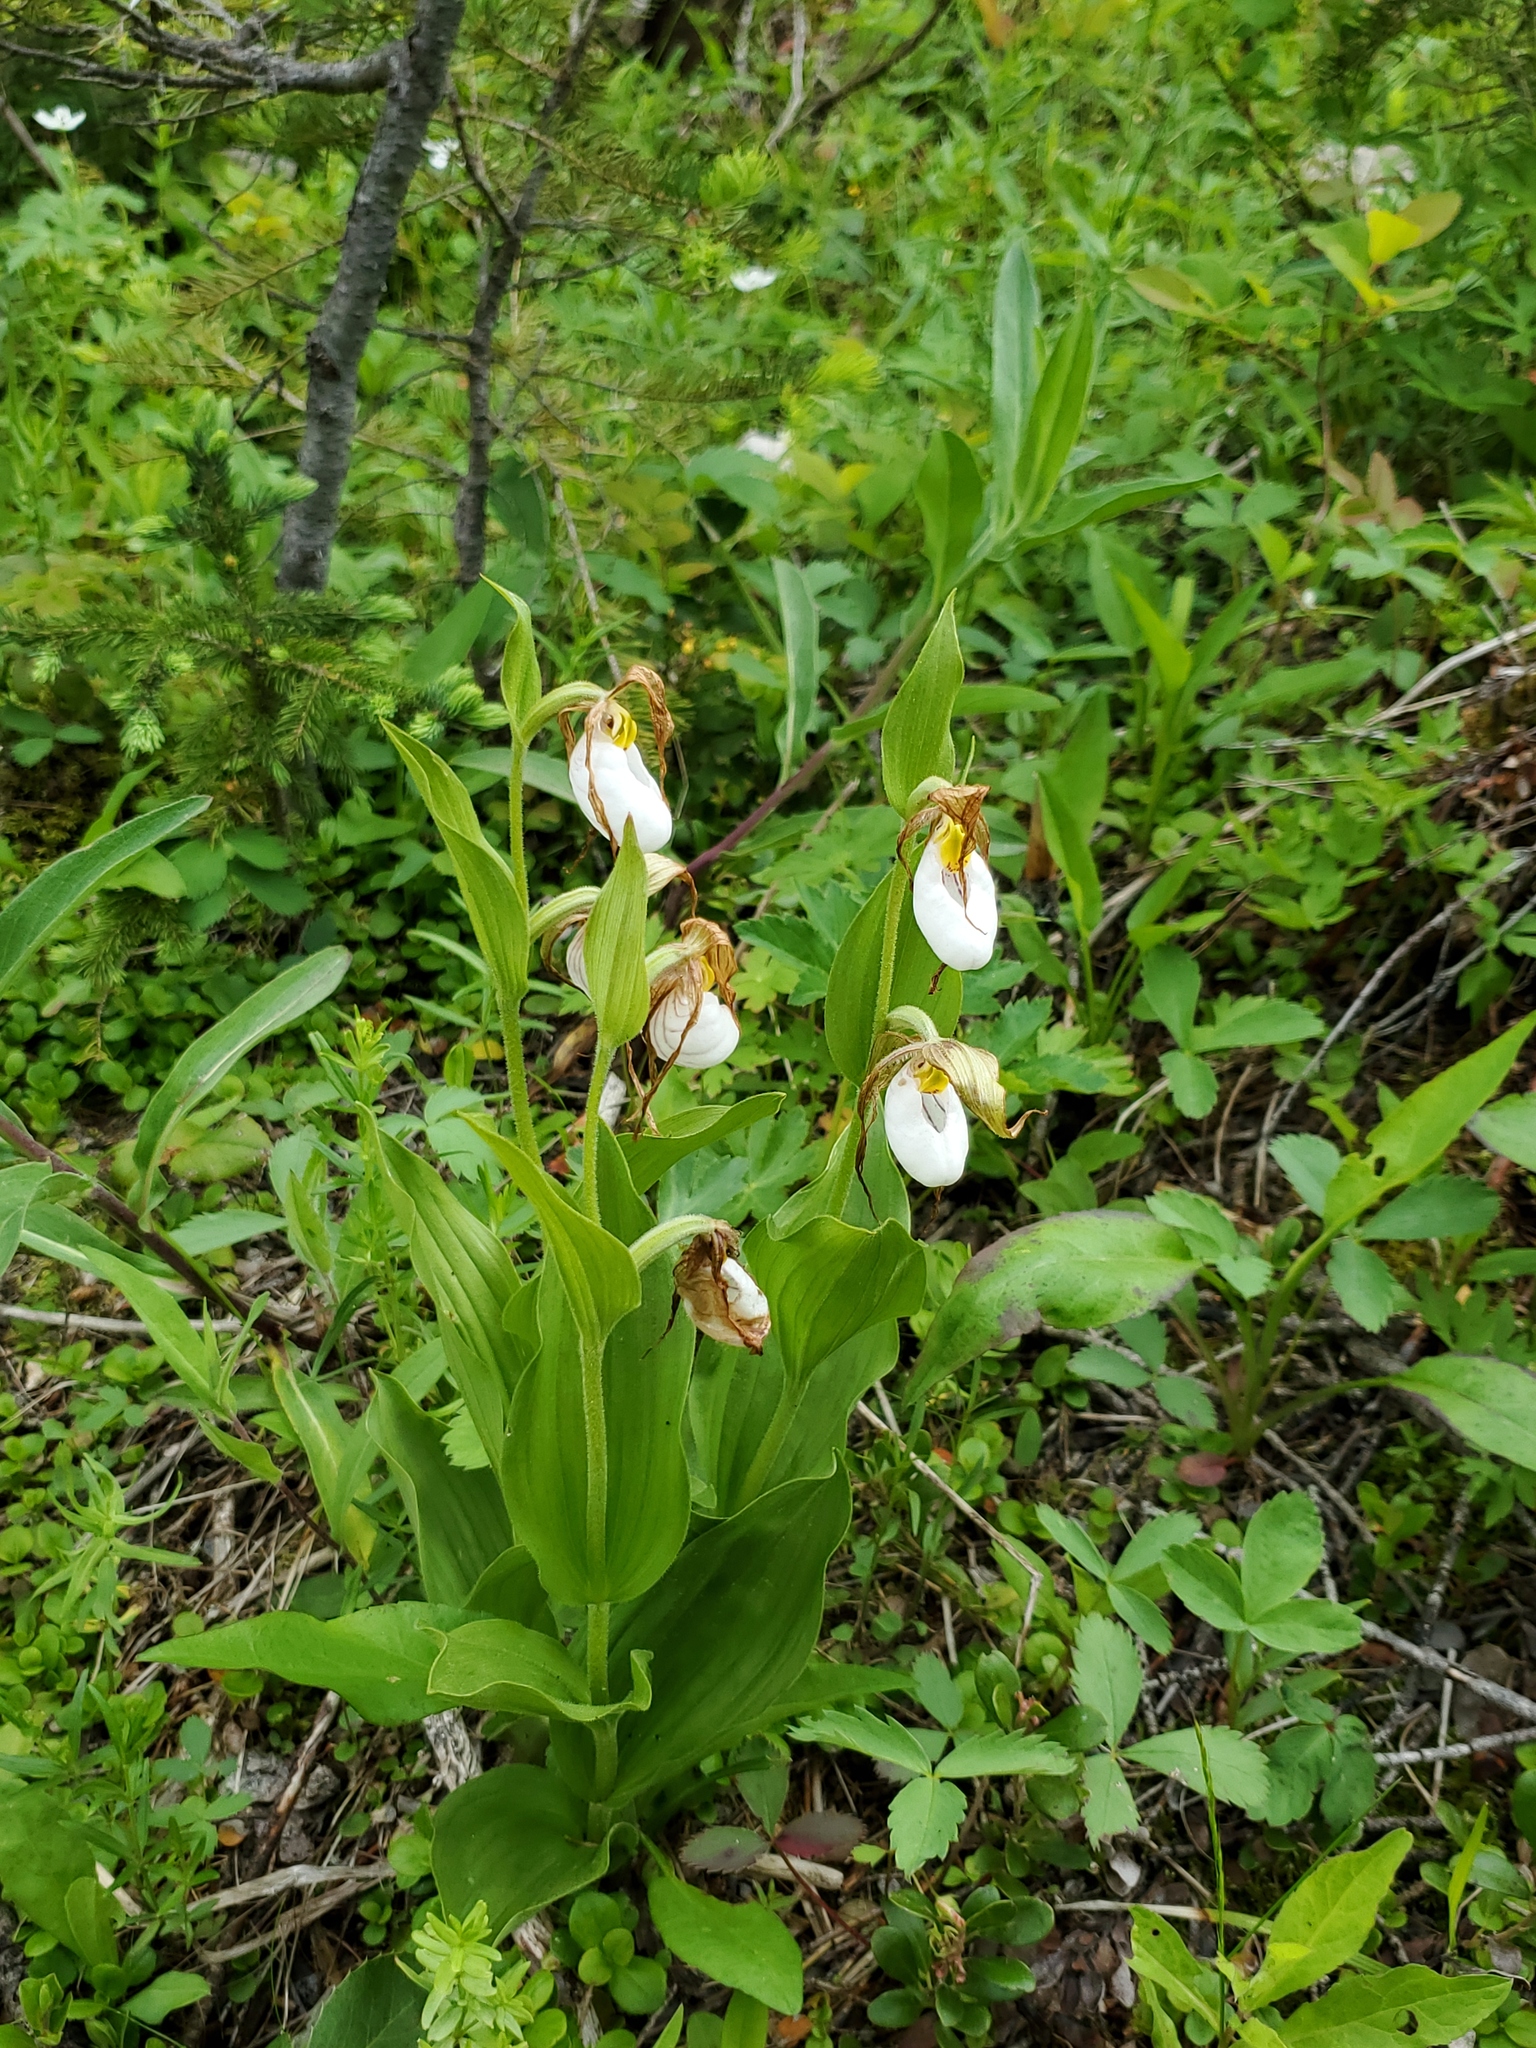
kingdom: Plantae
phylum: Tracheophyta
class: Liliopsida
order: Asparagales
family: Orchidaceae
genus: Cypripedium
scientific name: Cypripedium montanum
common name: Mountain lady's-slipper
